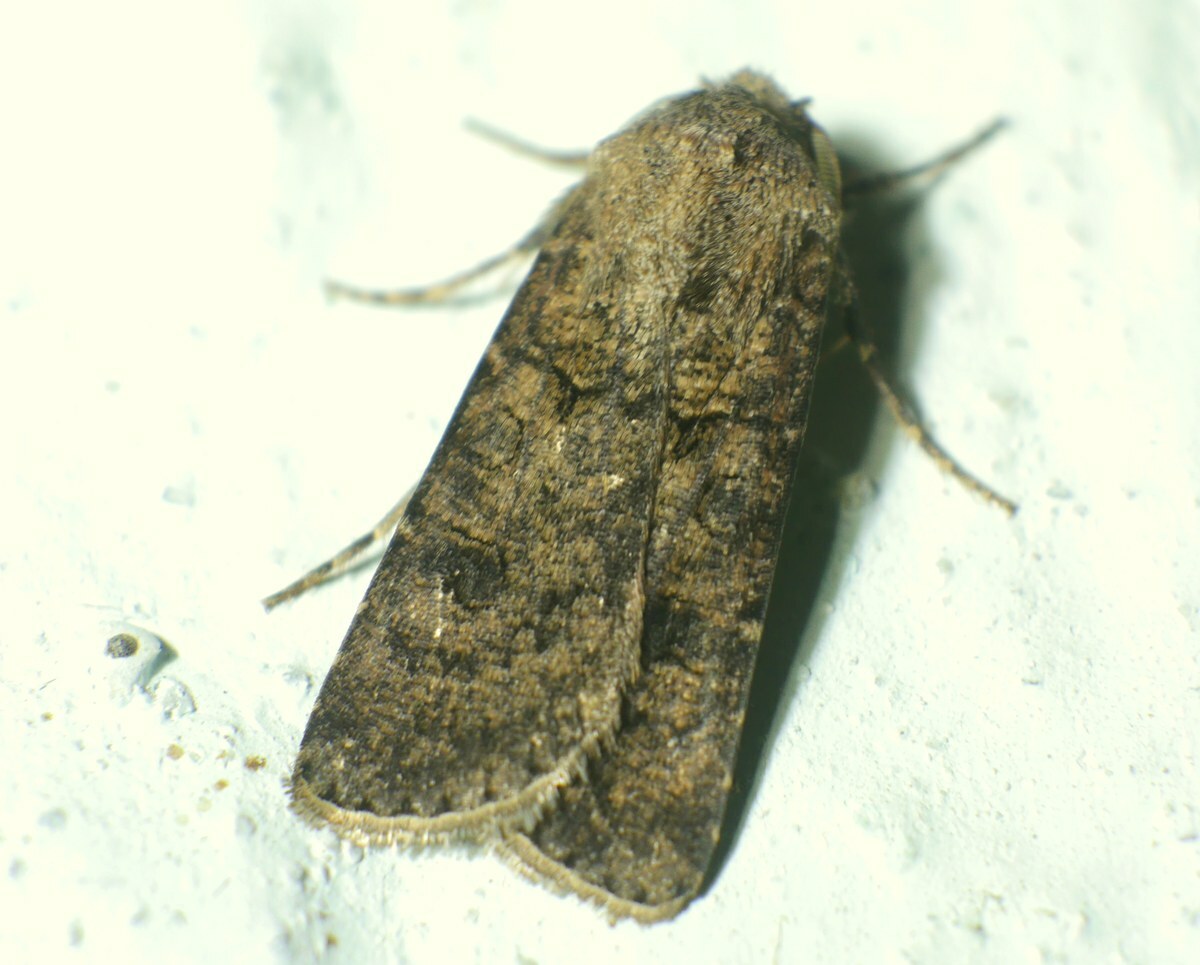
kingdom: Animalia
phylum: Arthropoda
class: Insecta
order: Lepidoptera
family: Noctuidae
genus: Agrotis
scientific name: Agrotis segetum
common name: Turnip moth
